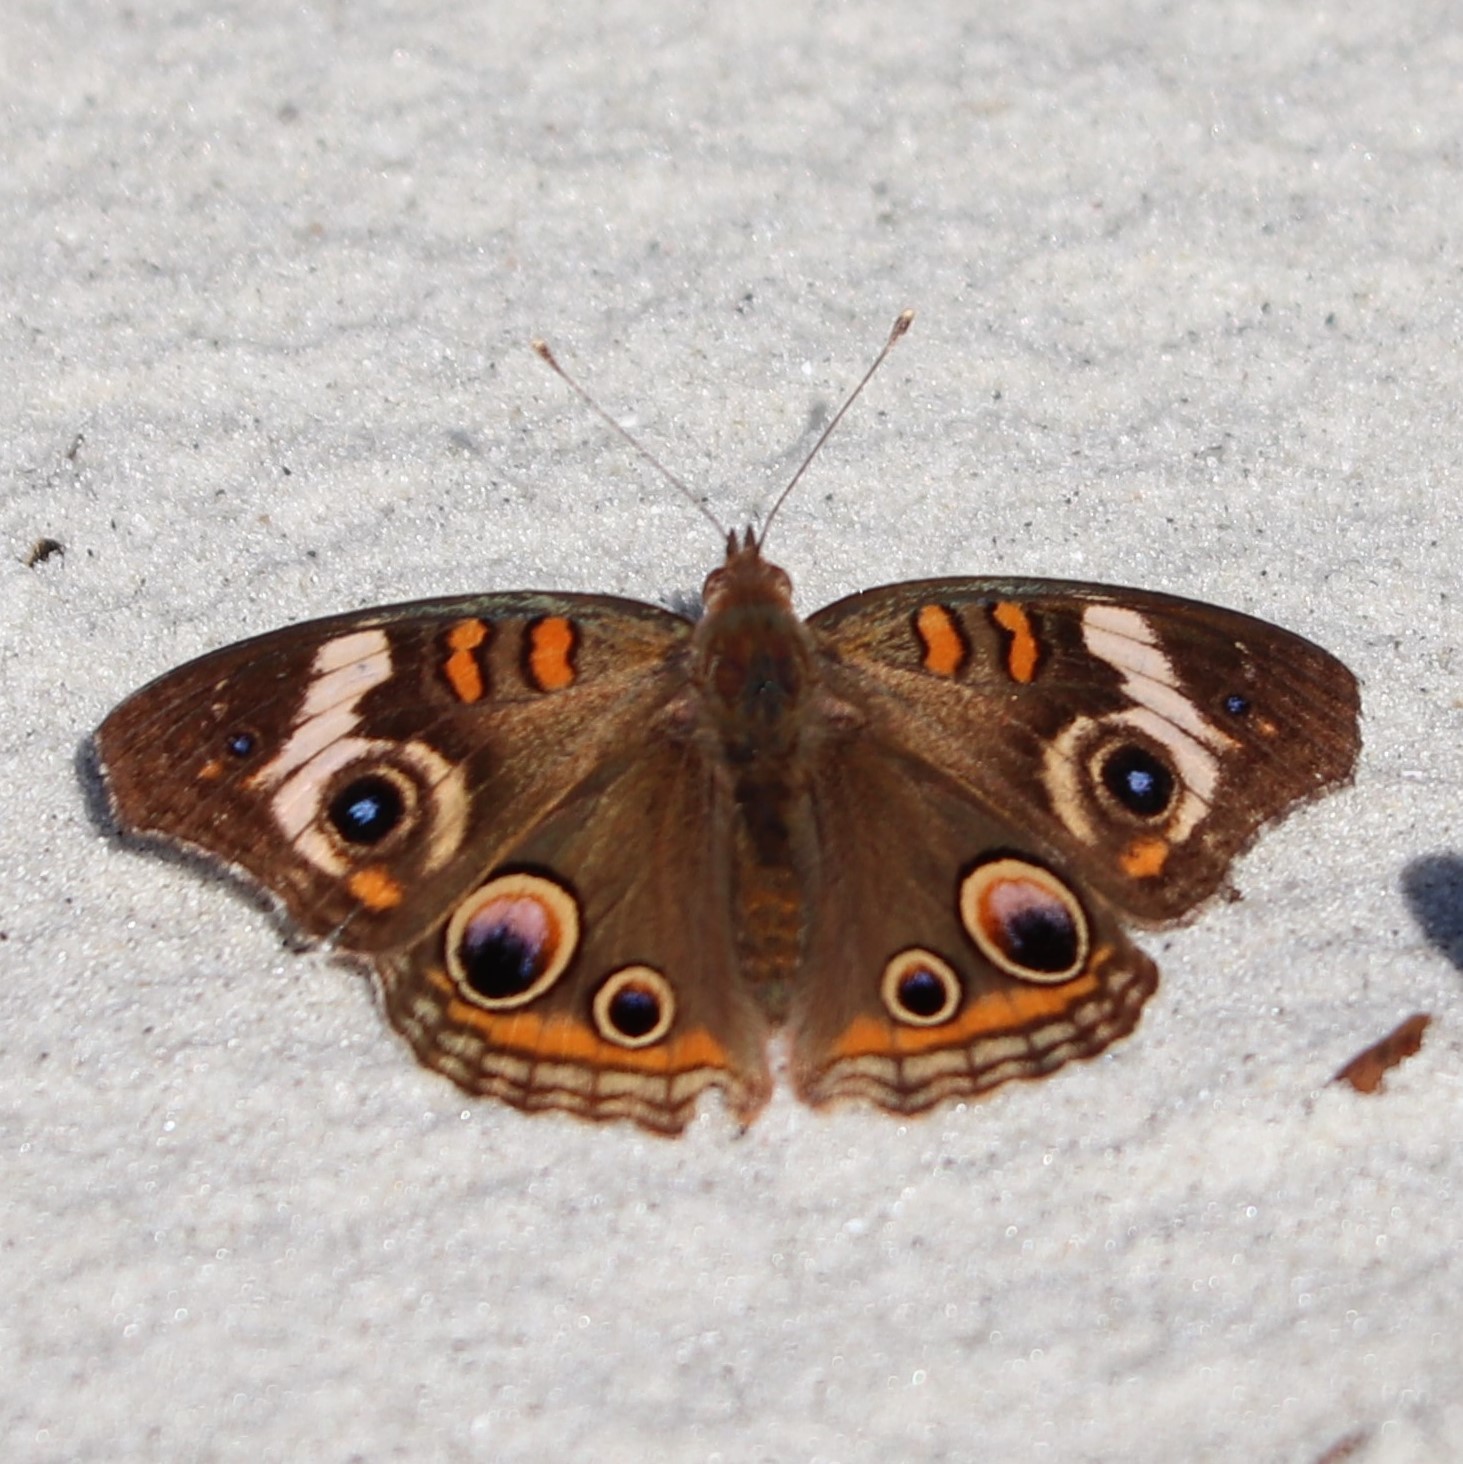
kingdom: Animalia
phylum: Arthropoda
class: Insecta
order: Lepidoptera
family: Nymphalidae
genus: Junonia
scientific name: Junonia coenia
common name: Common buckeye
